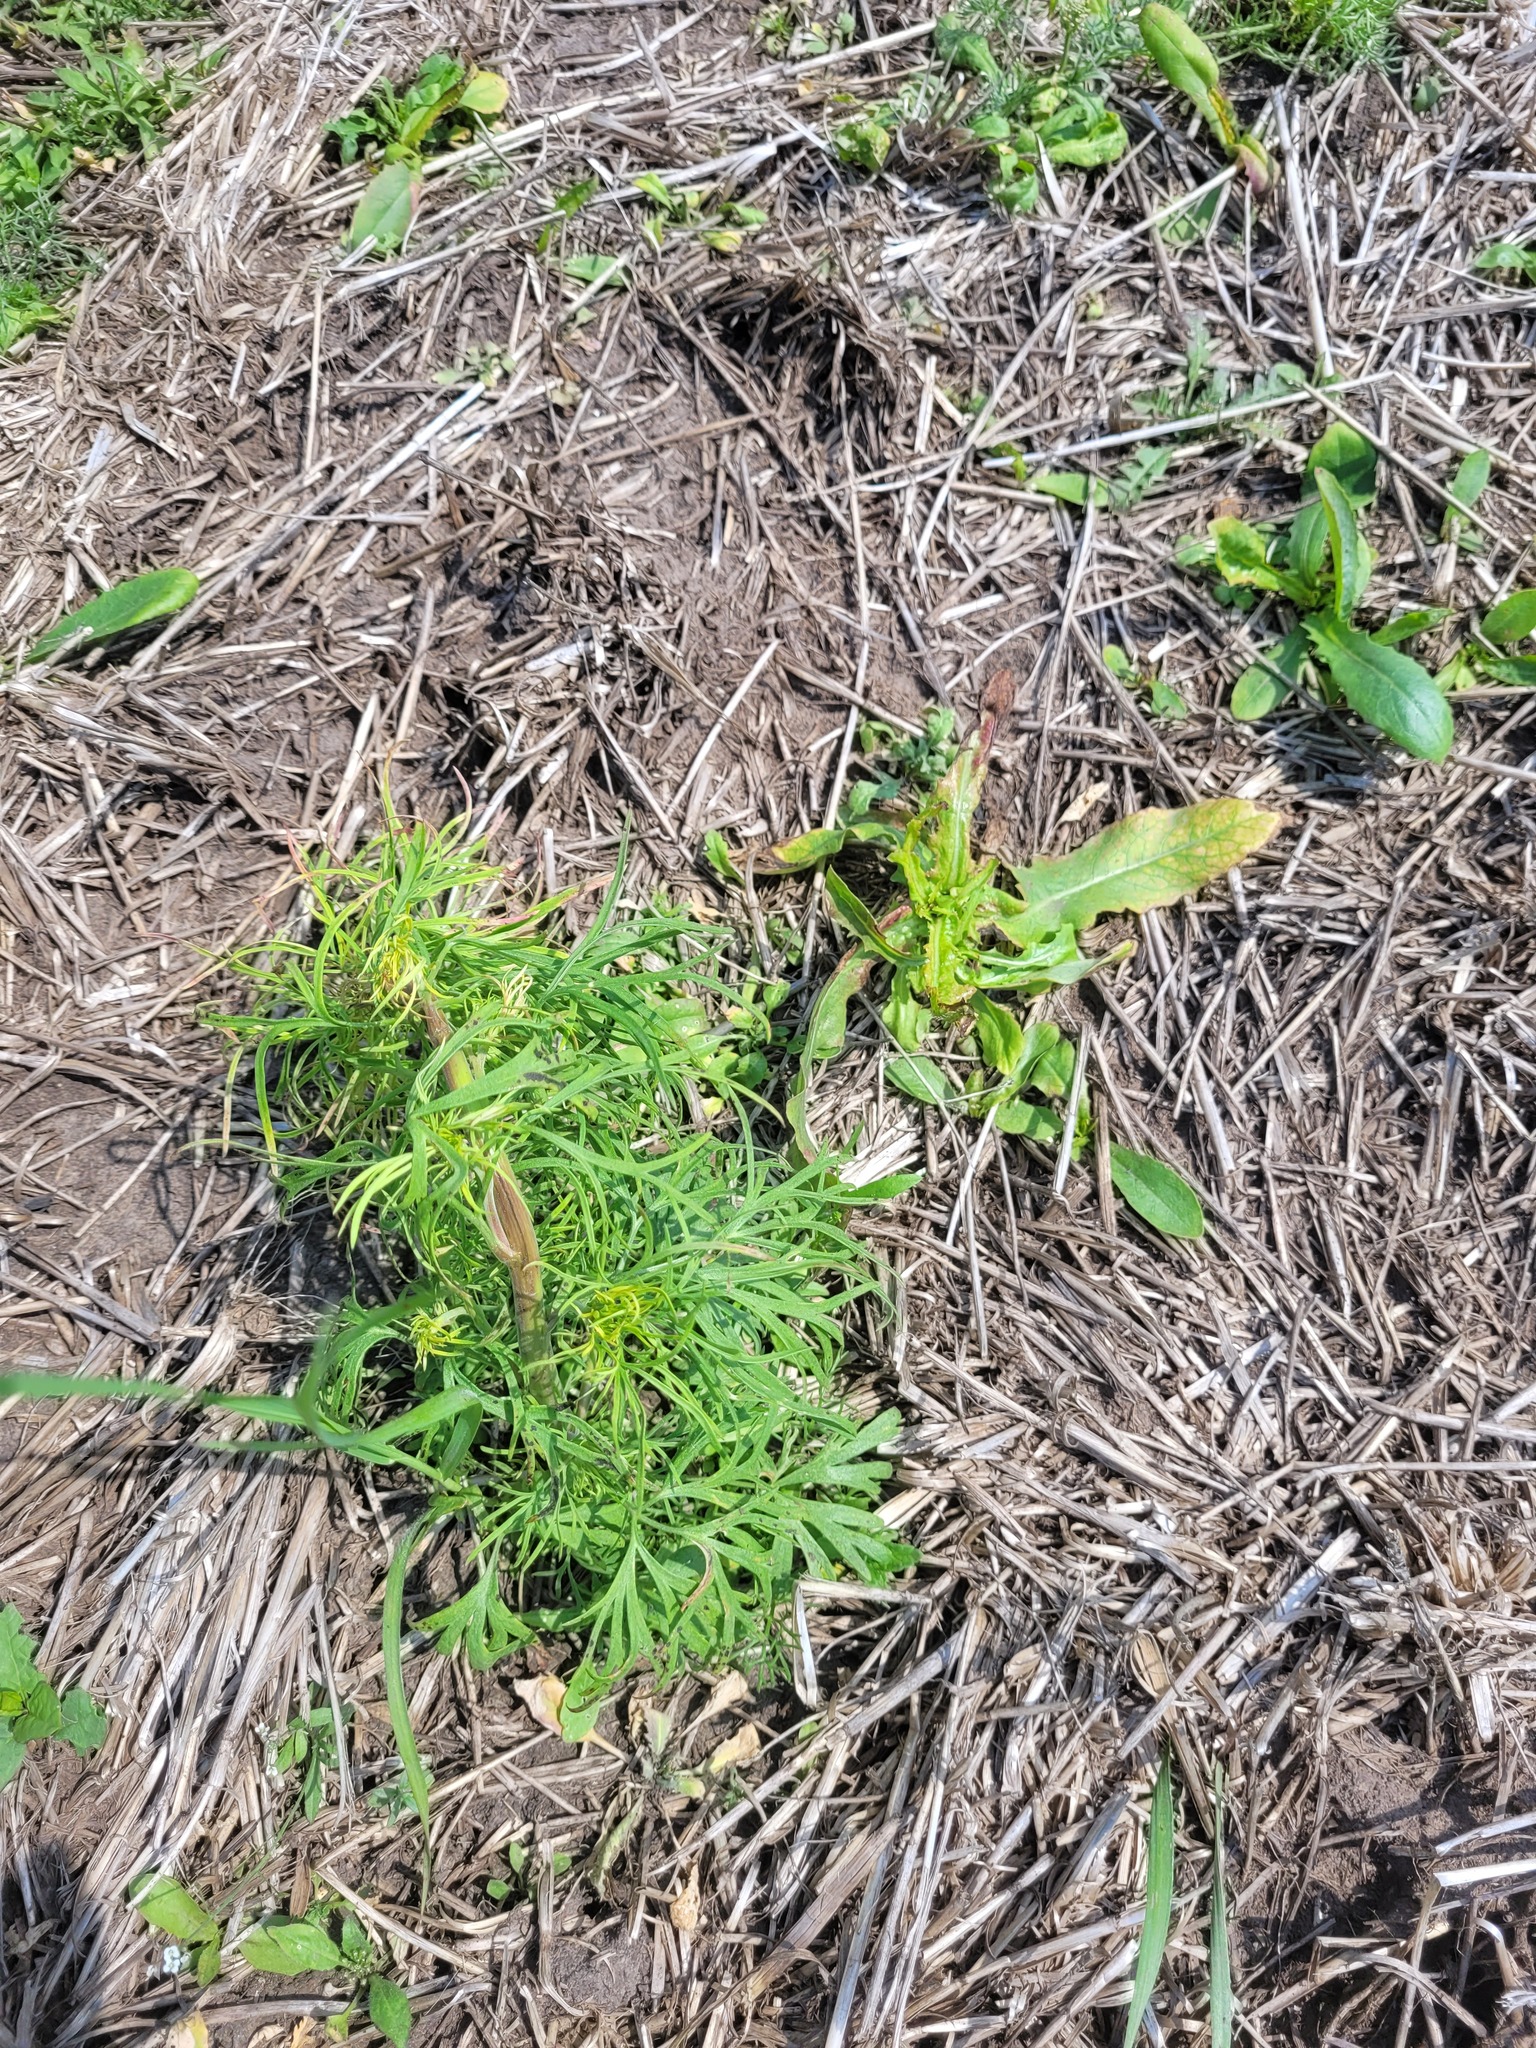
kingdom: Plantae
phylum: Tracheophyta
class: Magnoliopsida
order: Ranunculales
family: Ranunculaceae
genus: Delphinium
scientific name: Delphinium consolida
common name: Branching larkspur
